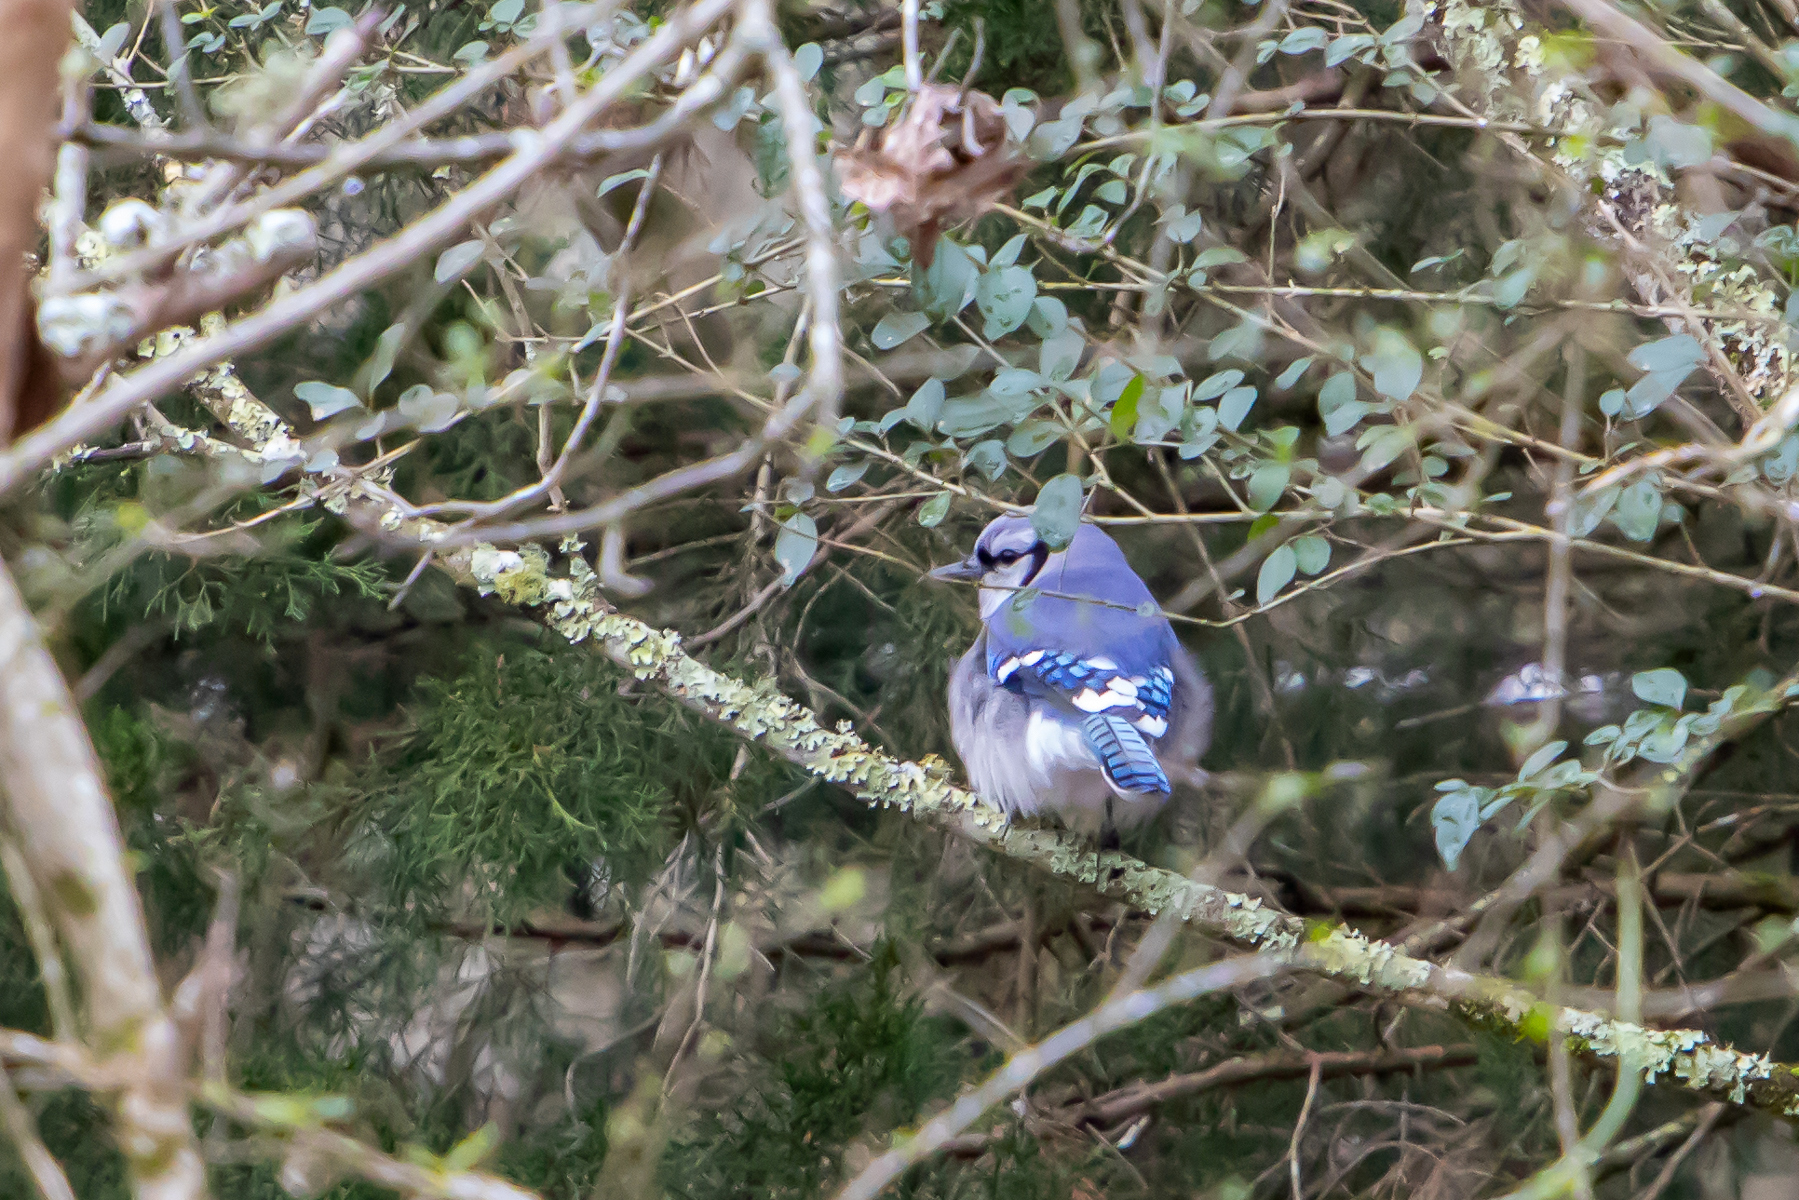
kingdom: Animalia
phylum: Chordata
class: Aves
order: Passeriformes
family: Corvidae
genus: Cyanocitta
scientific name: Cyanocitta cristata
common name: Blue jay
